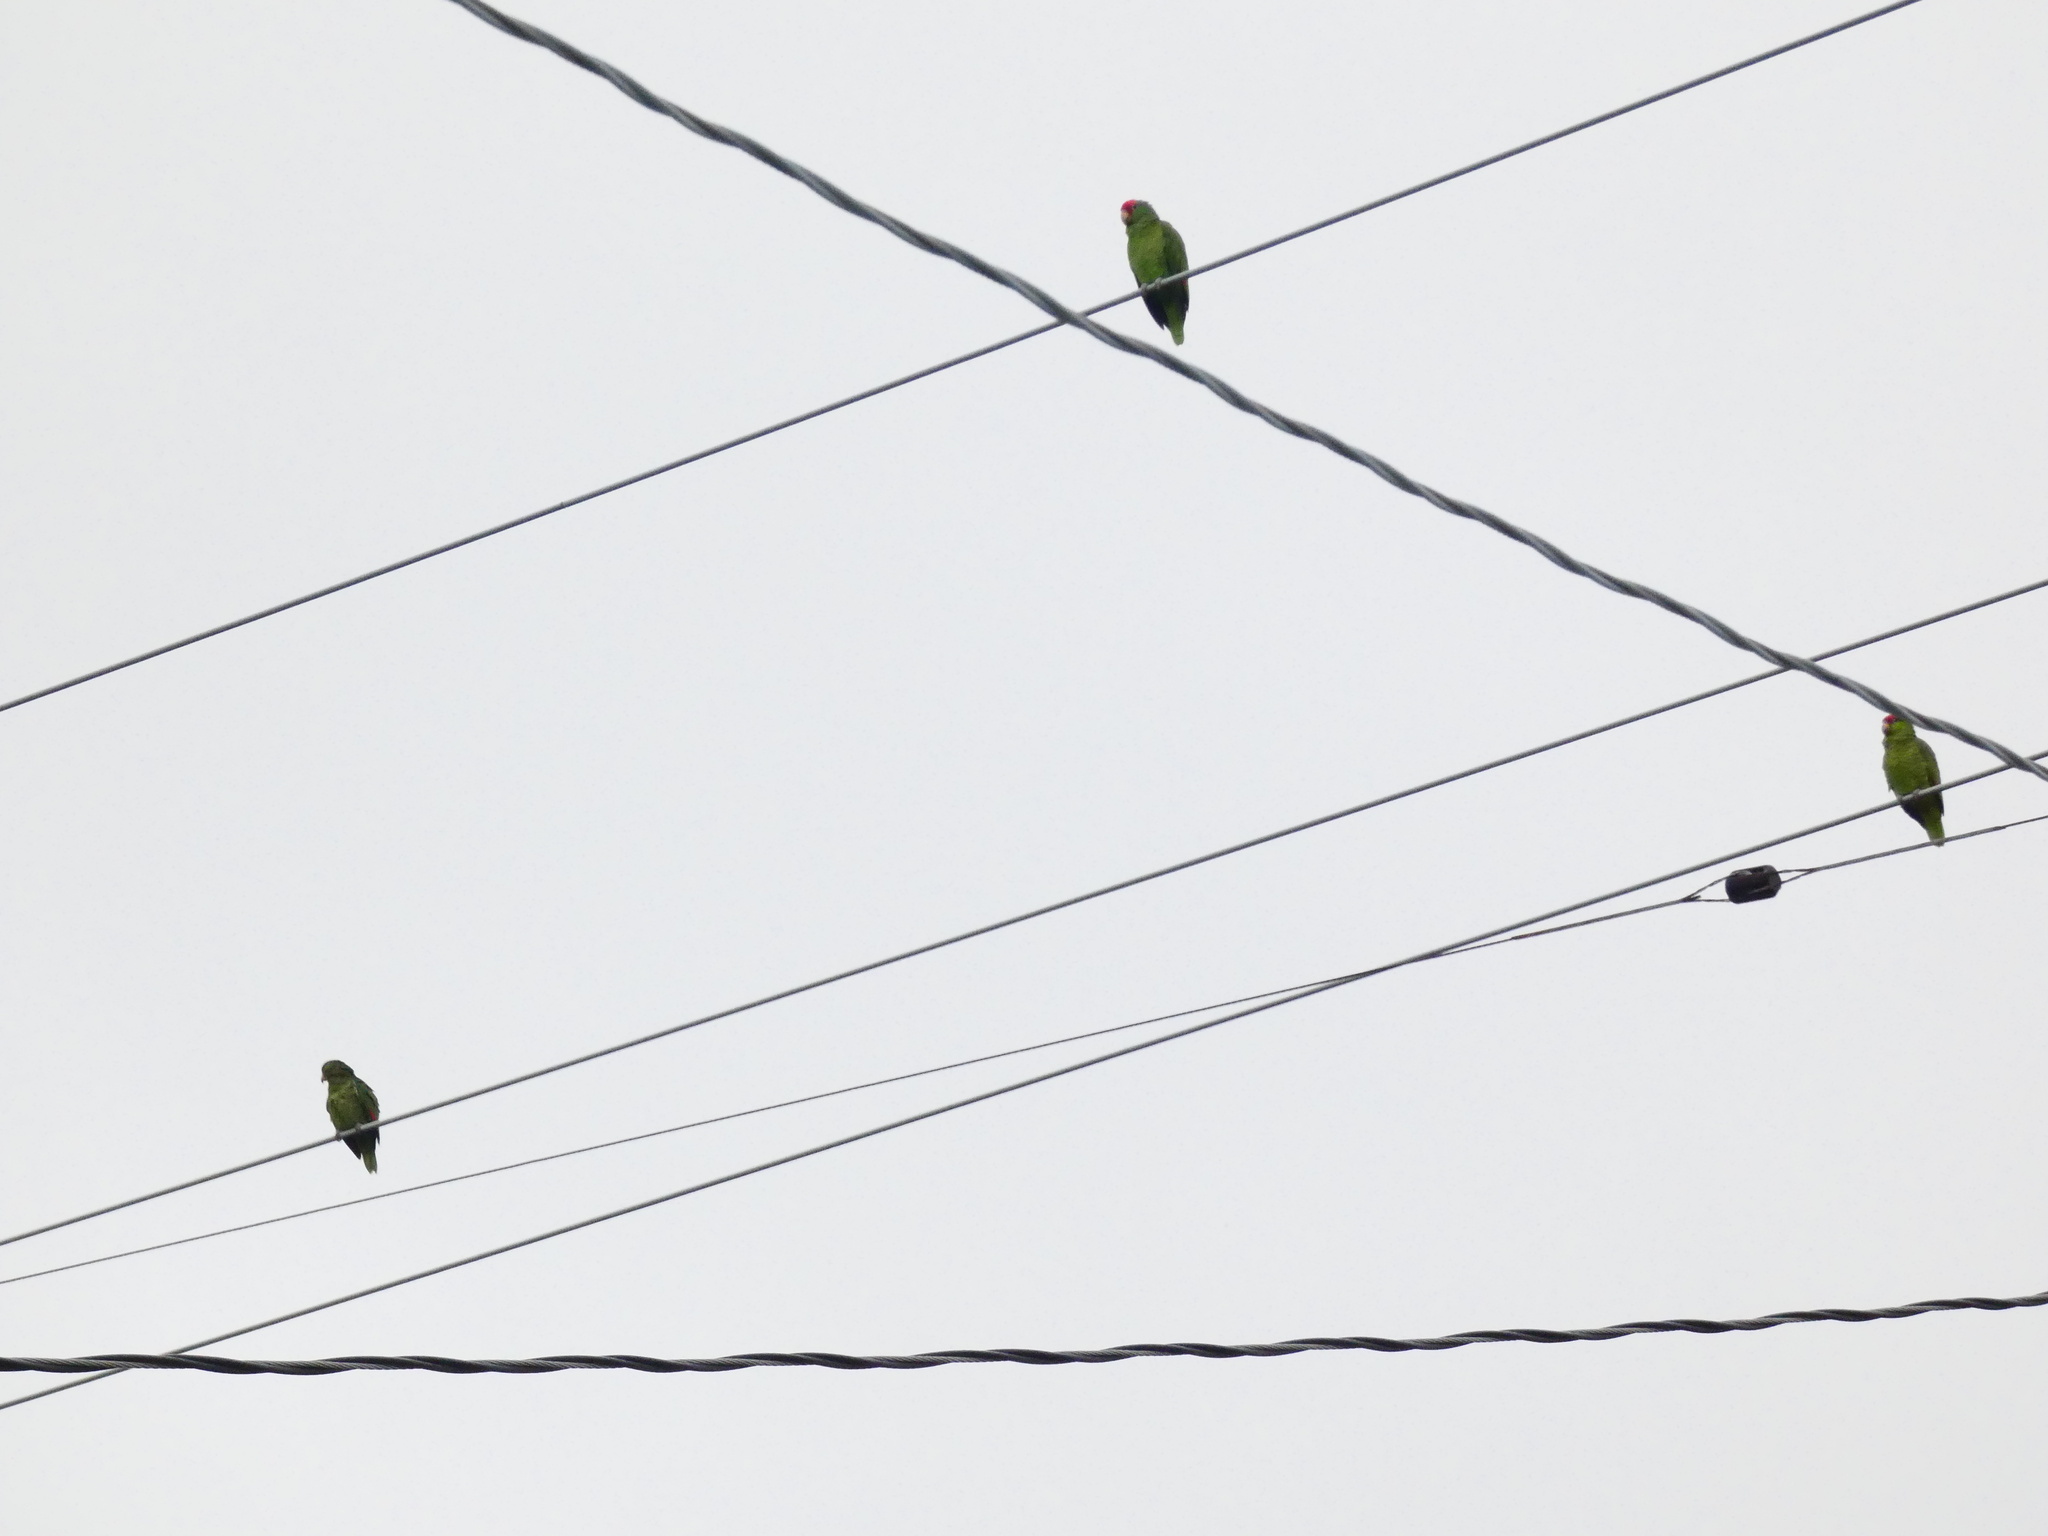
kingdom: Animalia
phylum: Chordata
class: Aves
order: Psittaciformes
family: Psittacidae
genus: Amazona
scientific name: Amazona viridigenalis
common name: Red-crowned amazon
